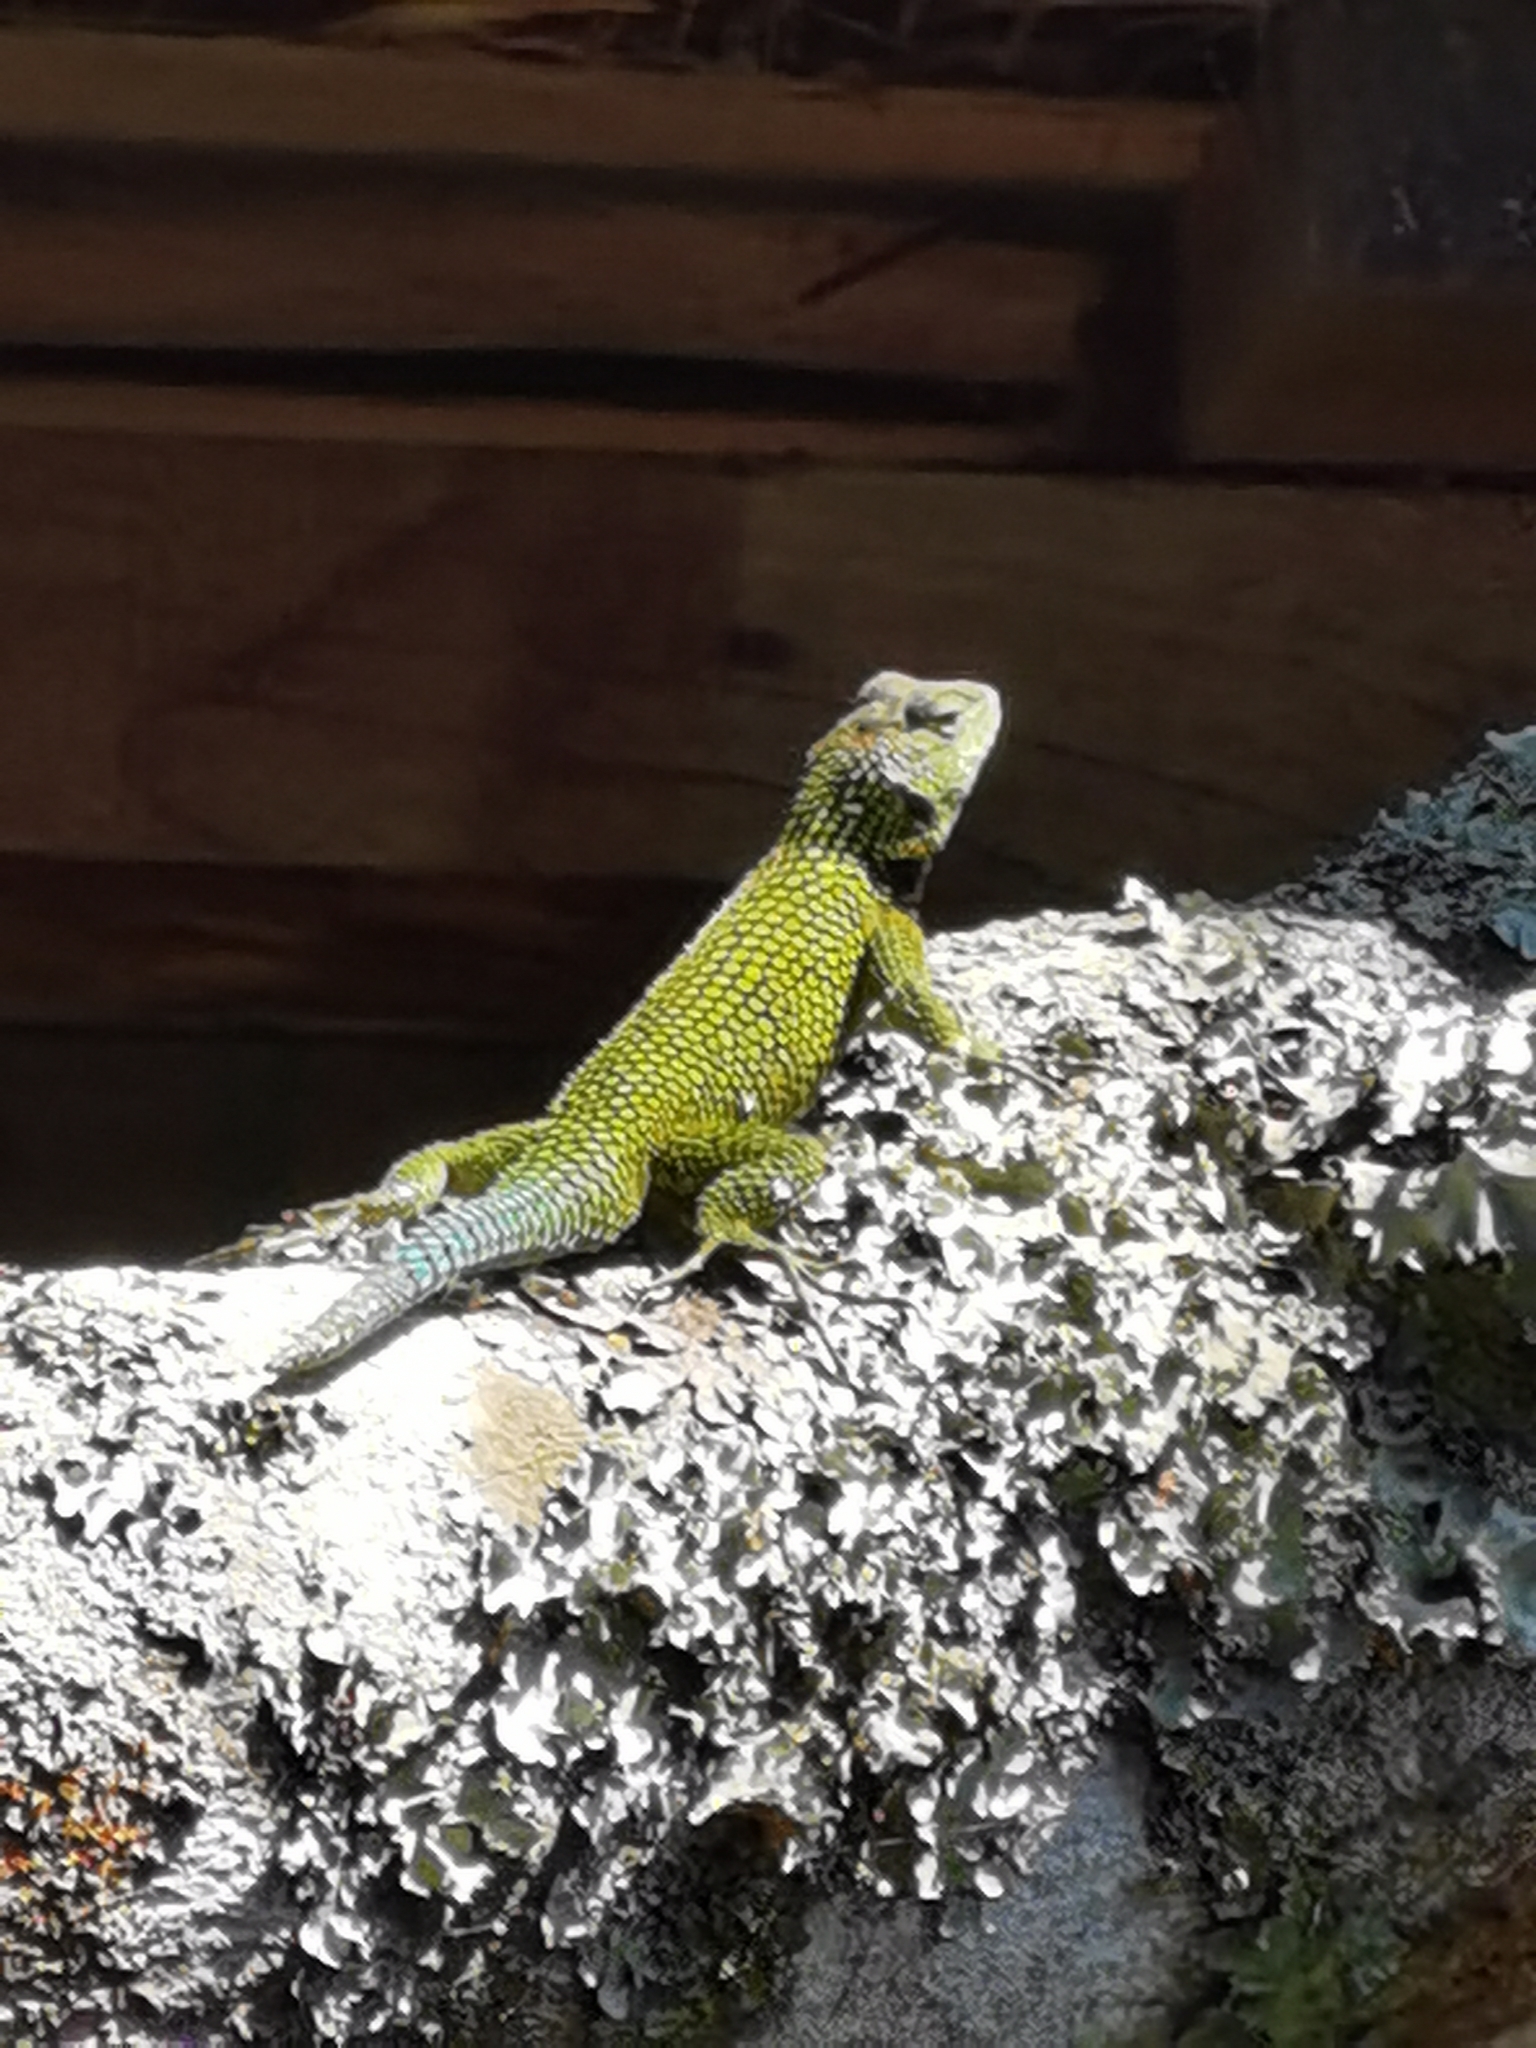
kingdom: Animalia
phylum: Chordata
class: Squamata
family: Phrynosomatidae
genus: Sceloporus
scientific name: Sceloporus malachiticus
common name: Green spiny lizard
